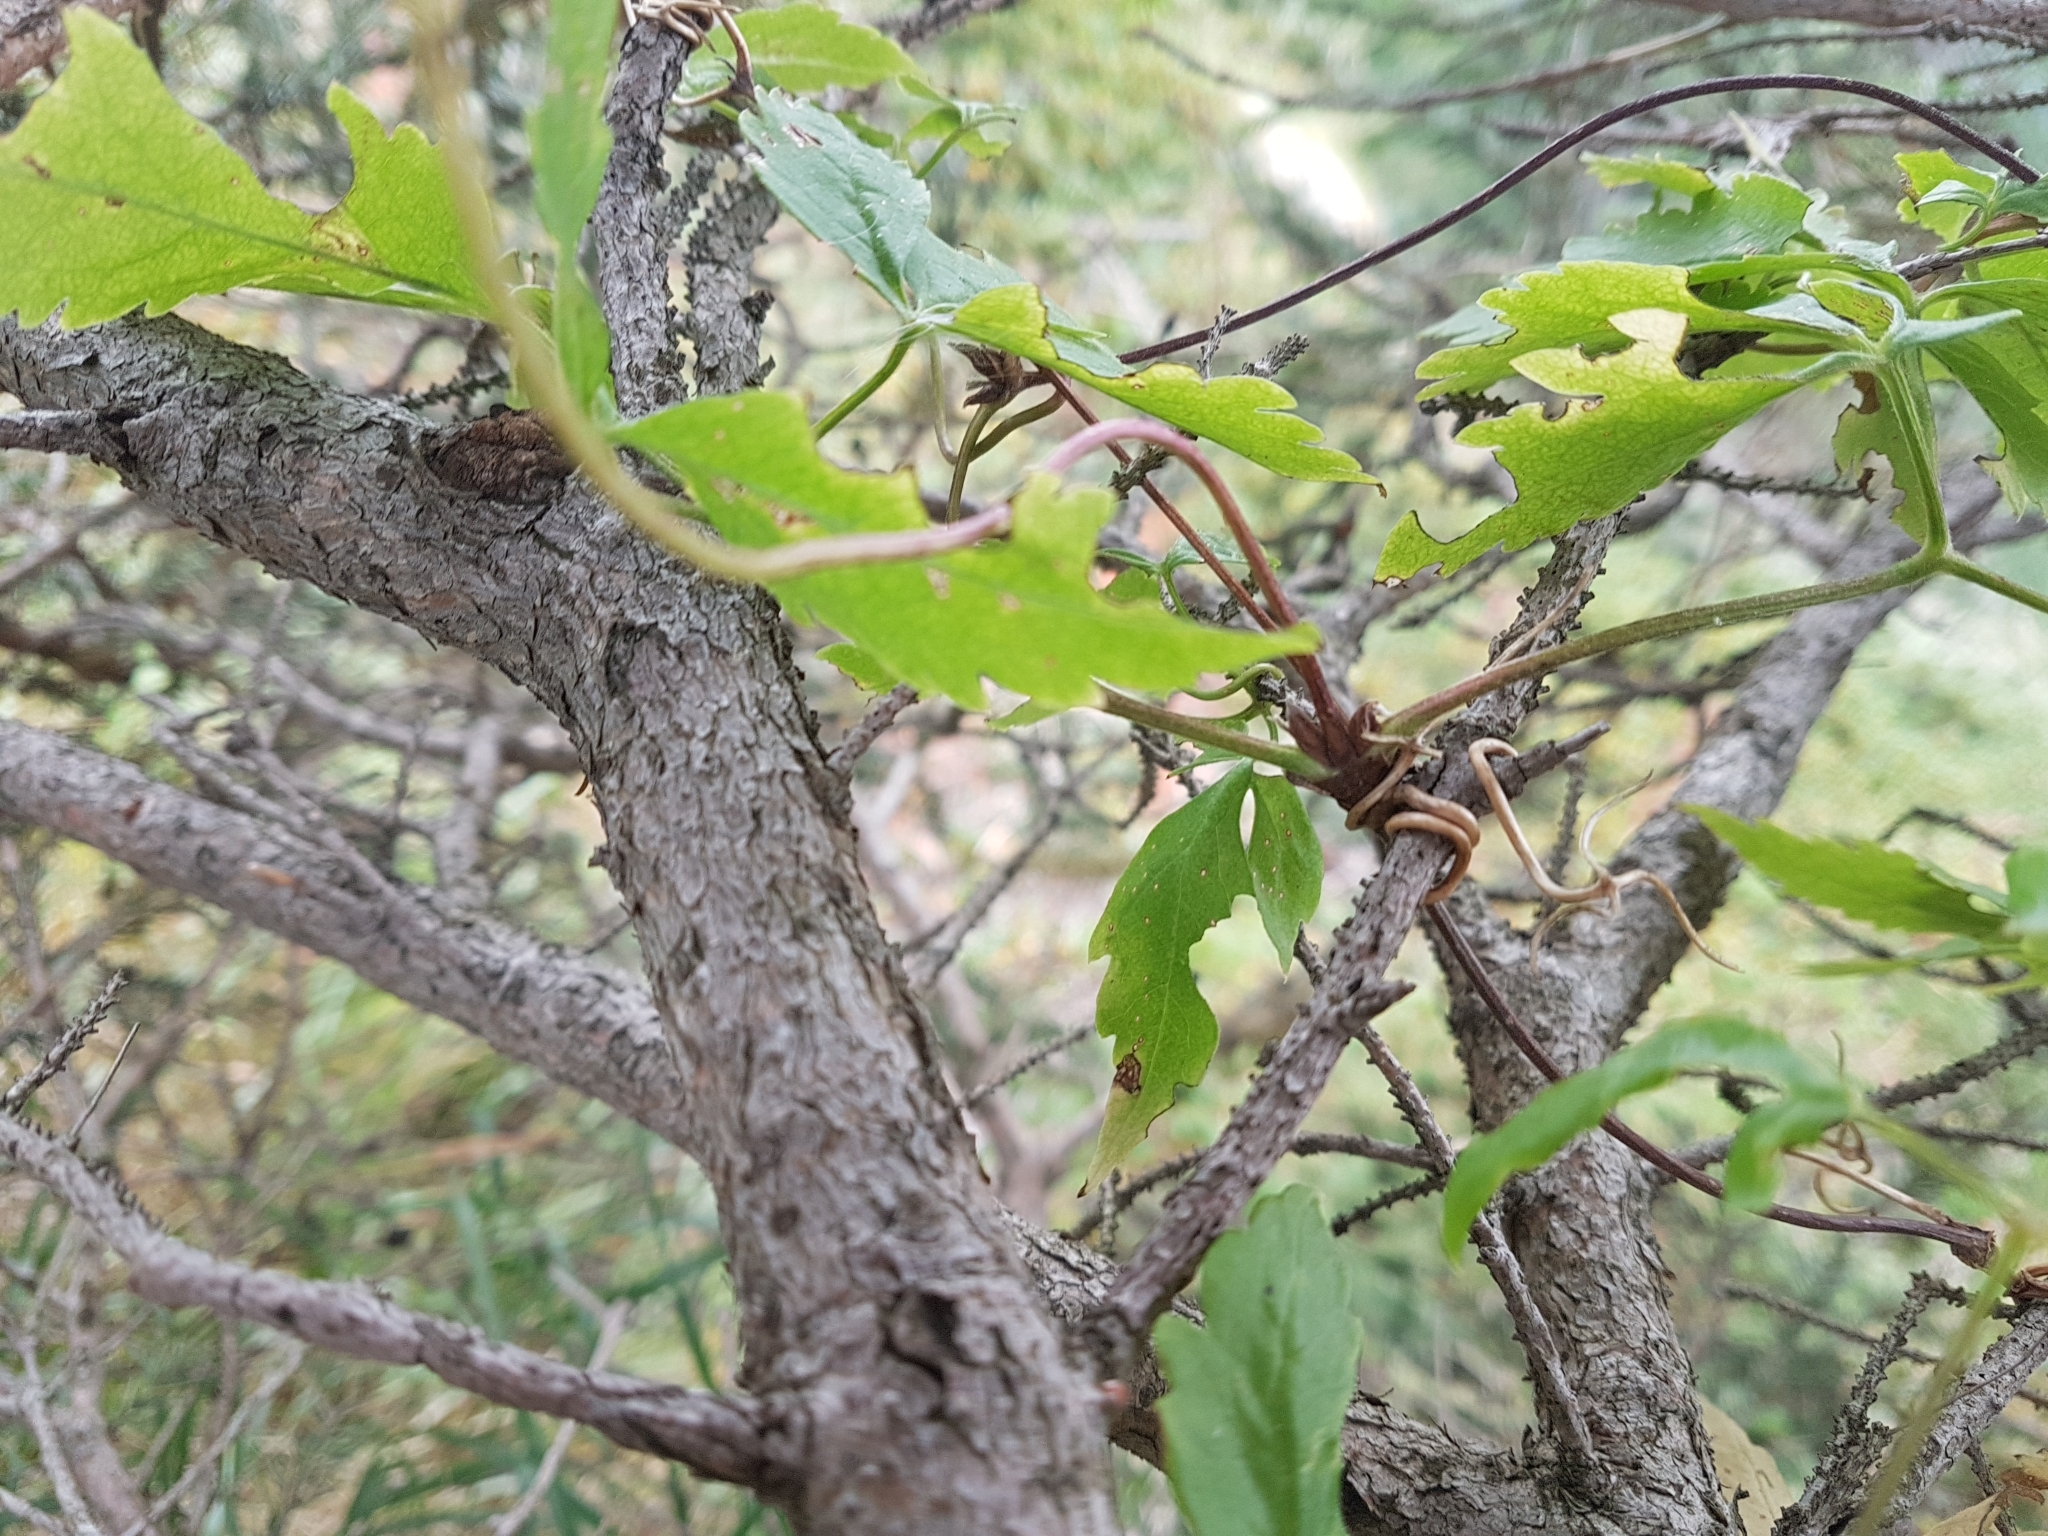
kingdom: Plantae
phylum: Tracheophyta
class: Magnoliopsida
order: Ranunculales
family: Ranunculaceae
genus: Clematis
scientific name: Clematis alpina
